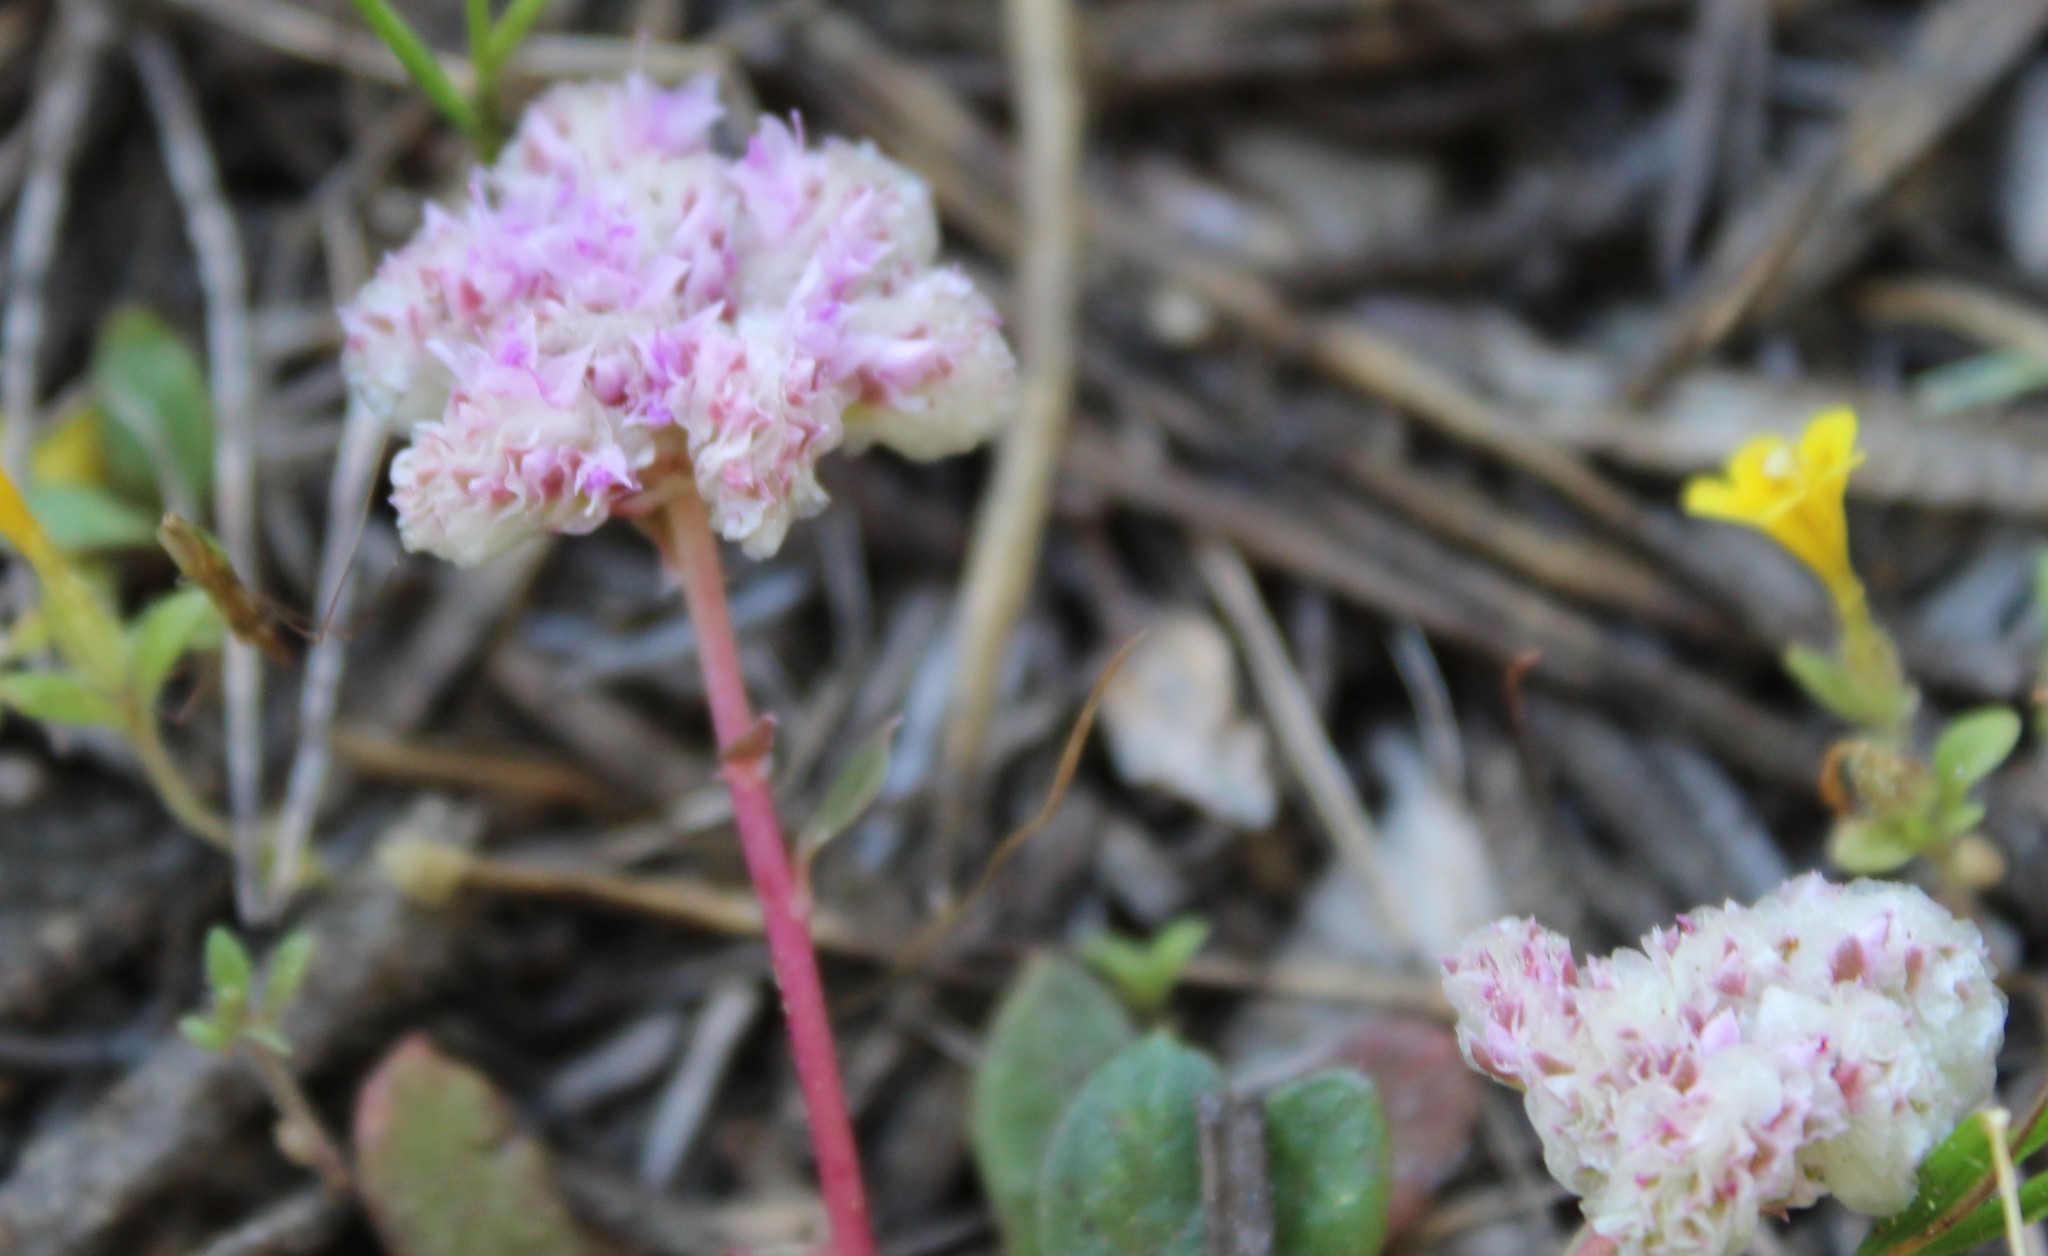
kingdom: Plantae
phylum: Tracheophyta
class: Magnoliopsida
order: Caryophyllales
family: Montiaceae
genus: Calyptridium
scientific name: Calyptridium monospermum
